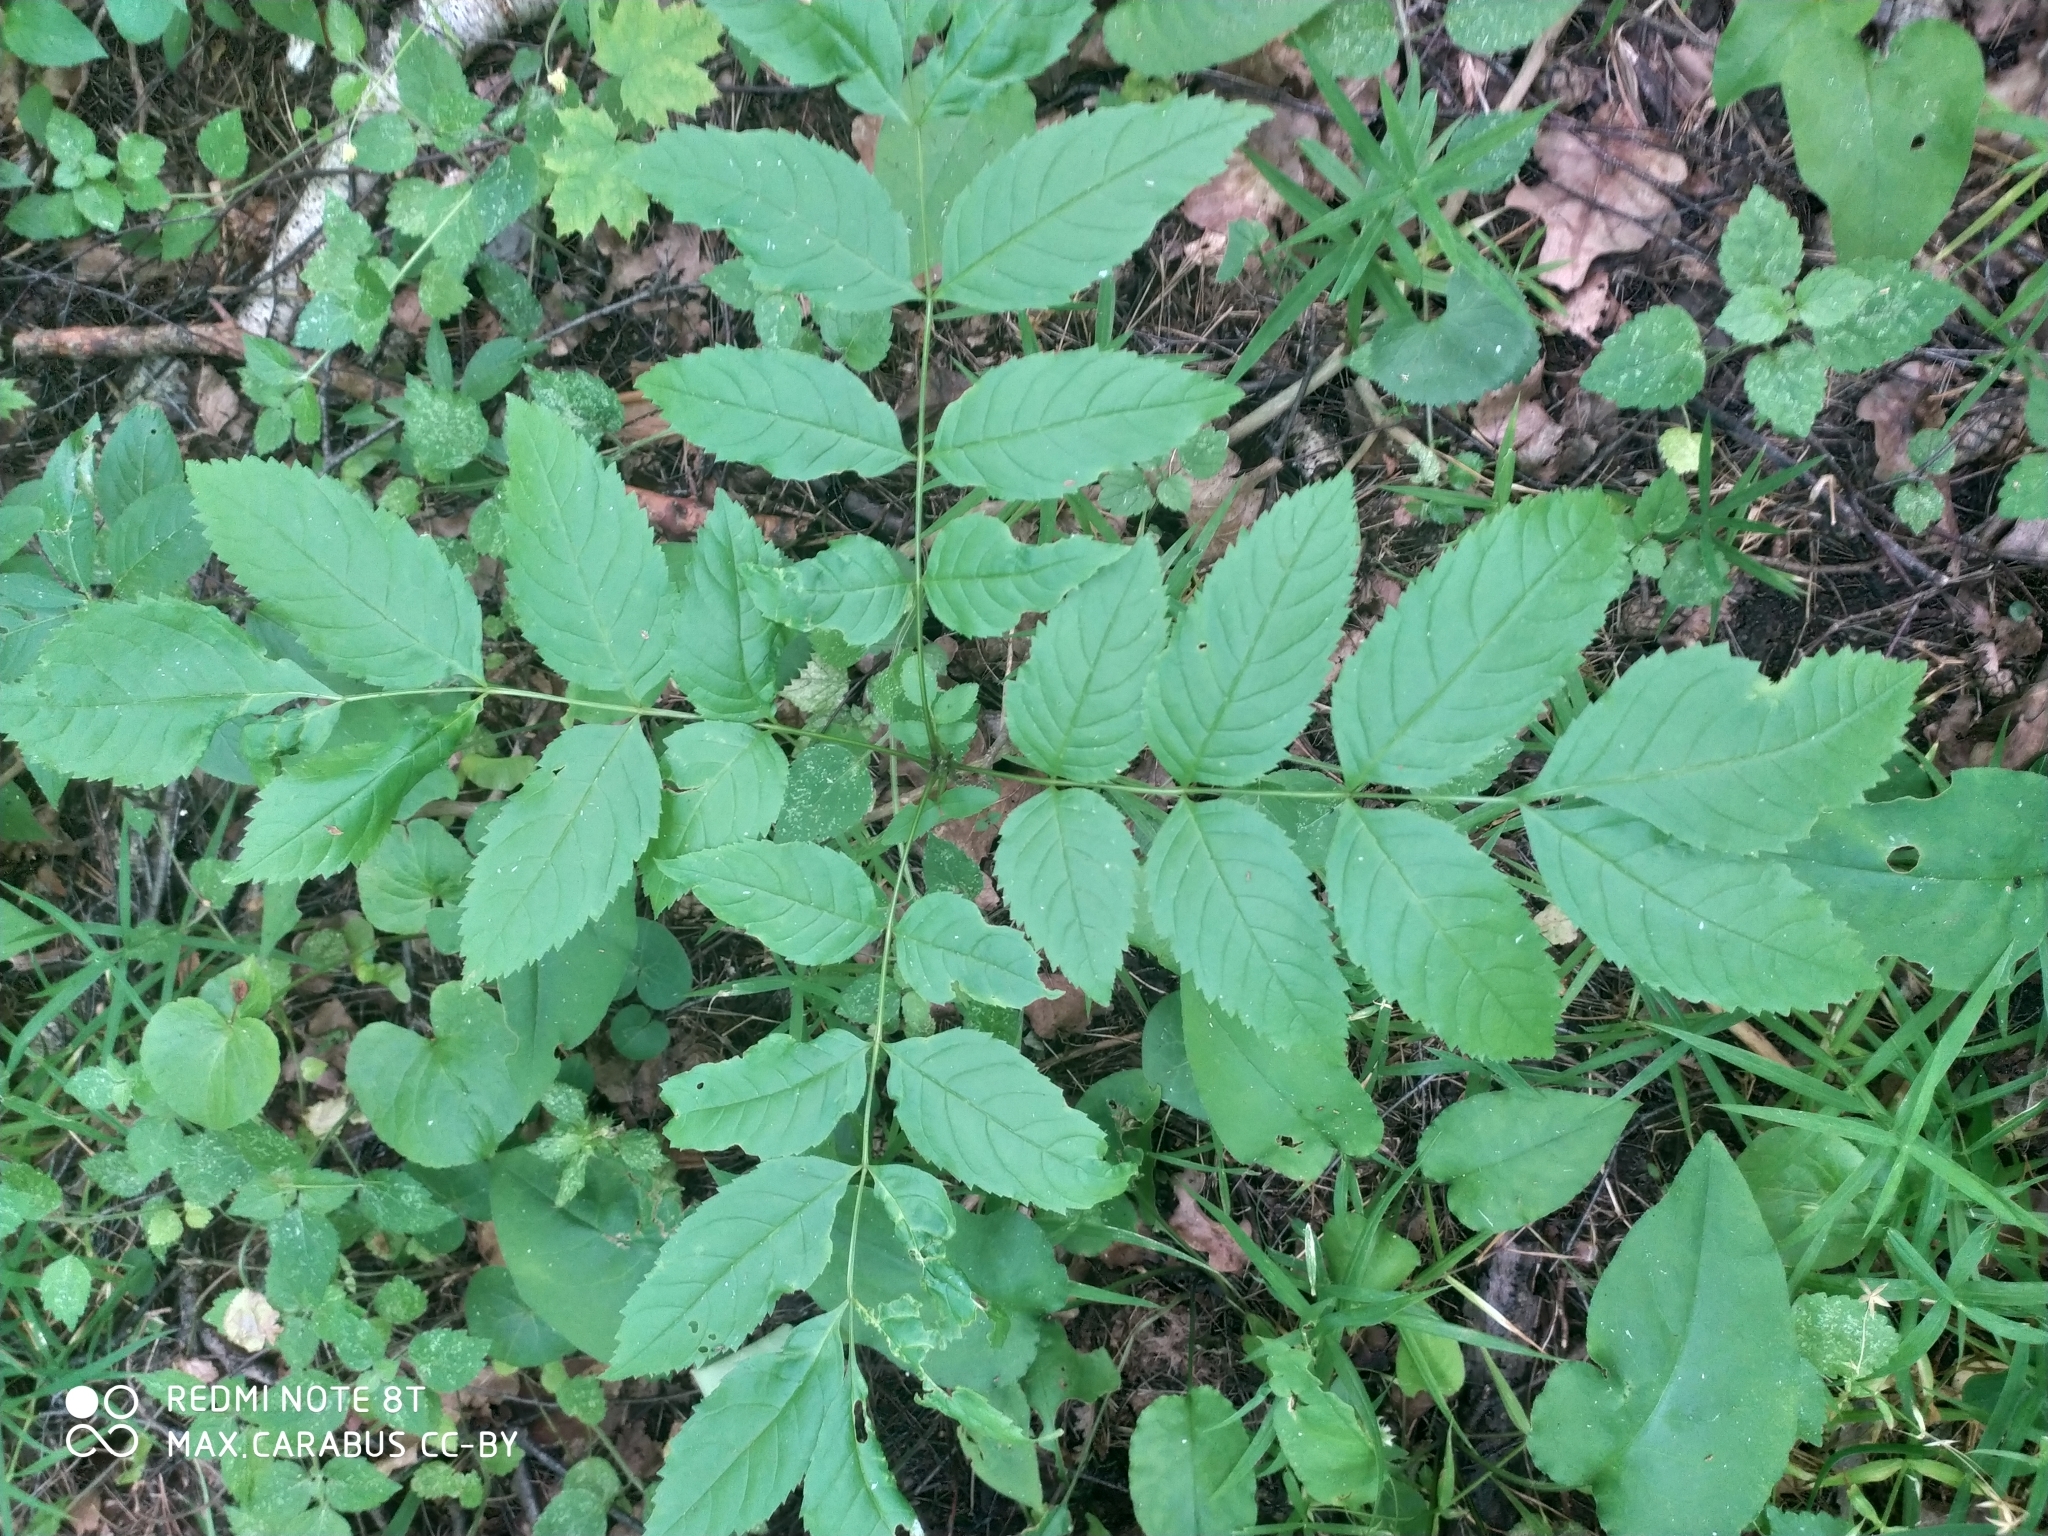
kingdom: Plantae
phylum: Tracheophyta
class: Magnoliopsida
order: Lamiales
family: Oleaceae
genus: Fraxinus
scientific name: Fraxinus excelsior
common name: European ash
